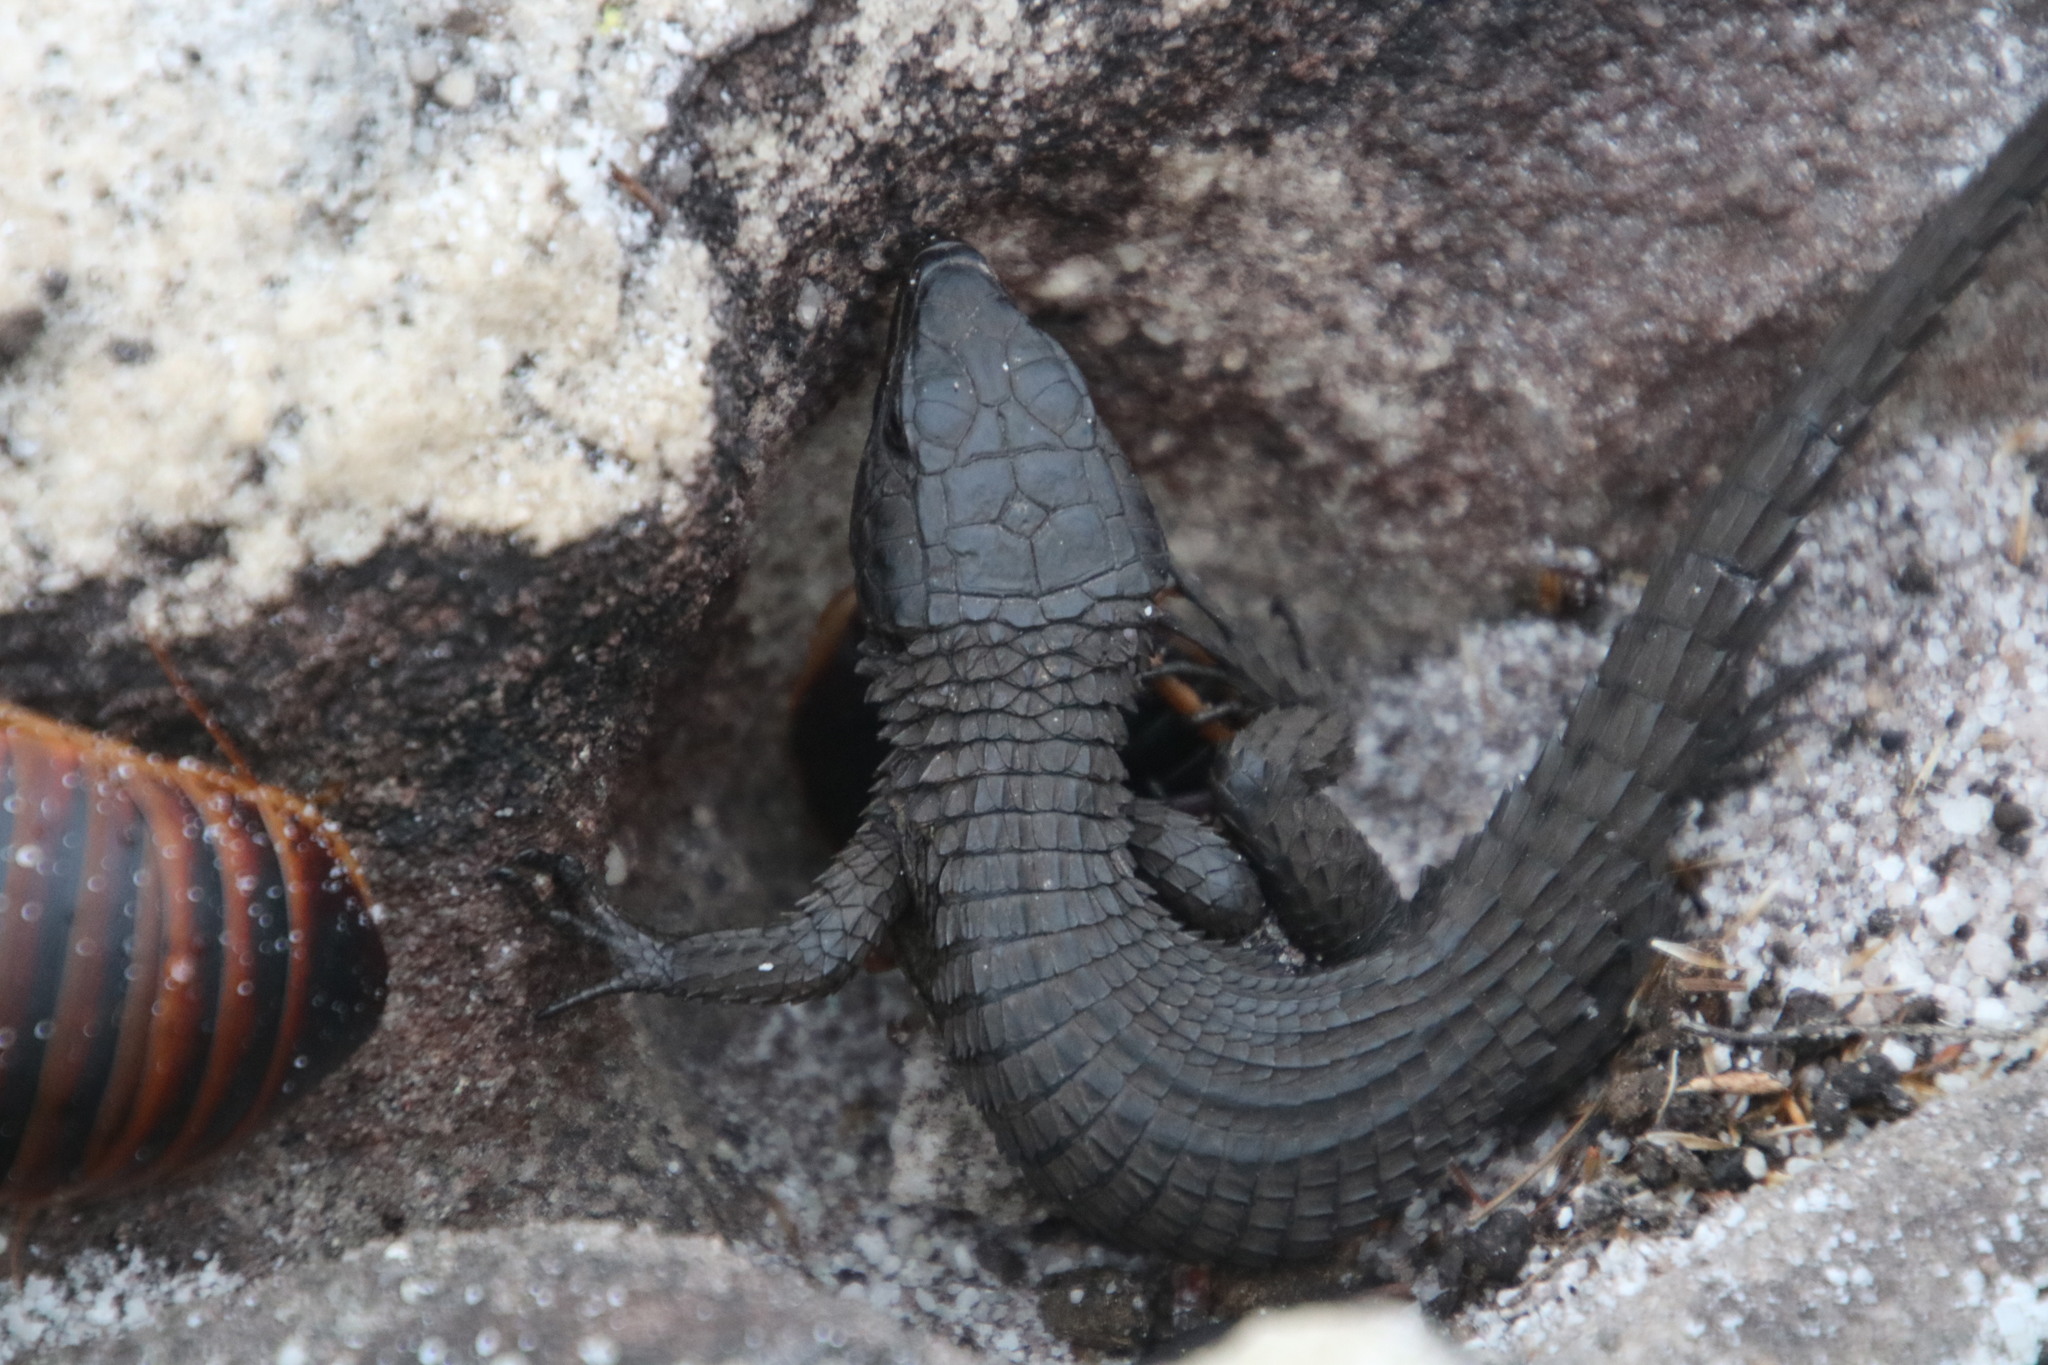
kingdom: Animalia
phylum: Chordata
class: Squamata
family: Cordylidae
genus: Cordylus
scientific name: Cordylus niger
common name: Black girdled lizard
